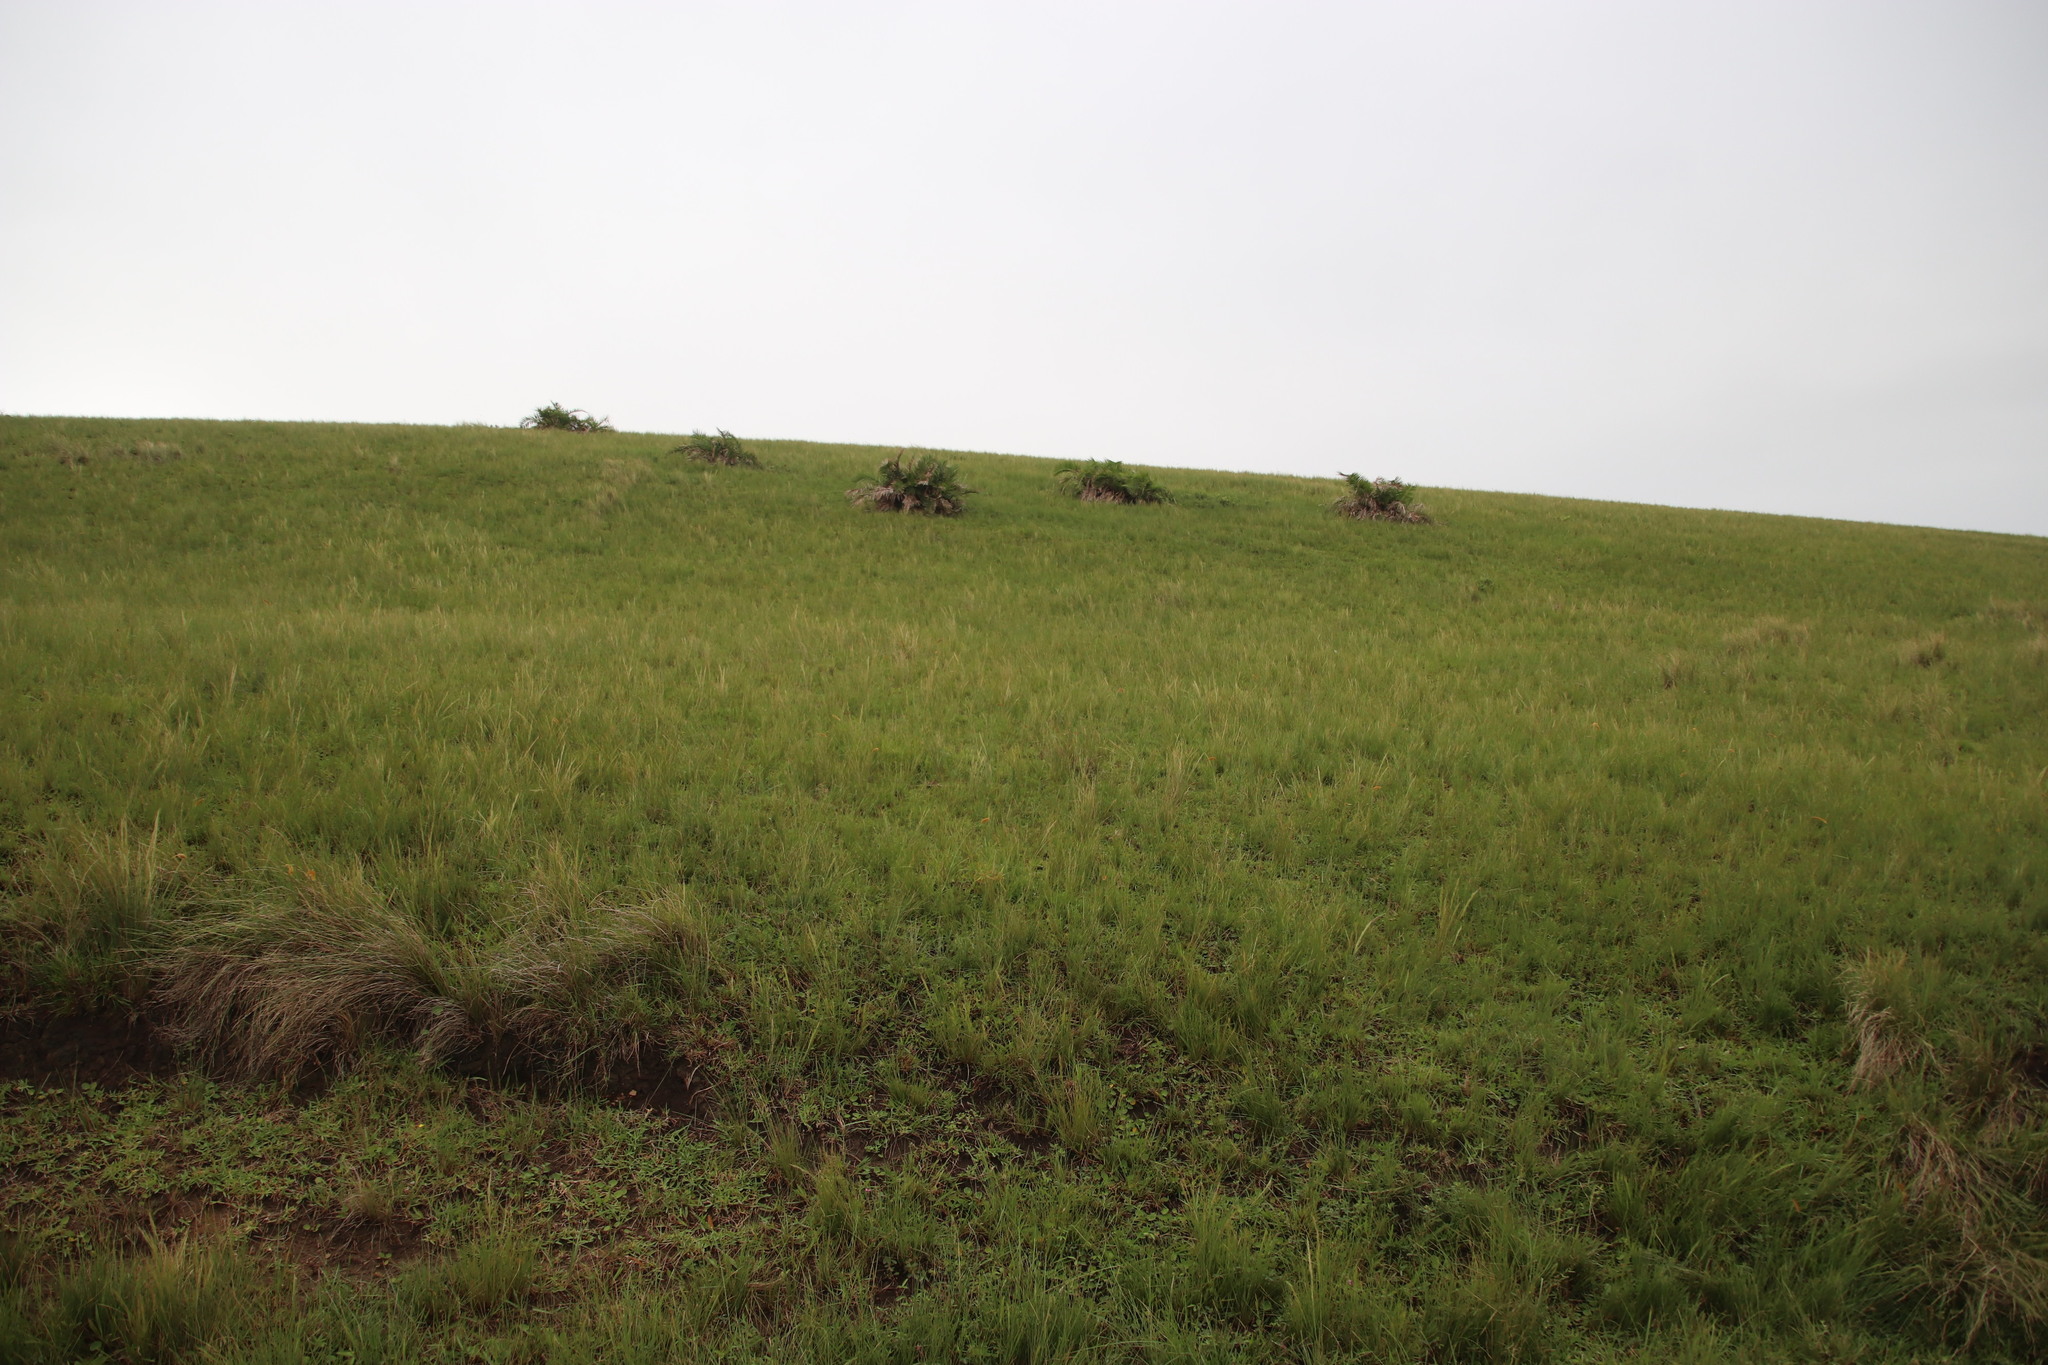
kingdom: Plantae
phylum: Tracheophyta
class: Liliopsida
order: Arecales
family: Arecaceae
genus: Phoenix
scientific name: Phoenix reclinata
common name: Senegal date palm
